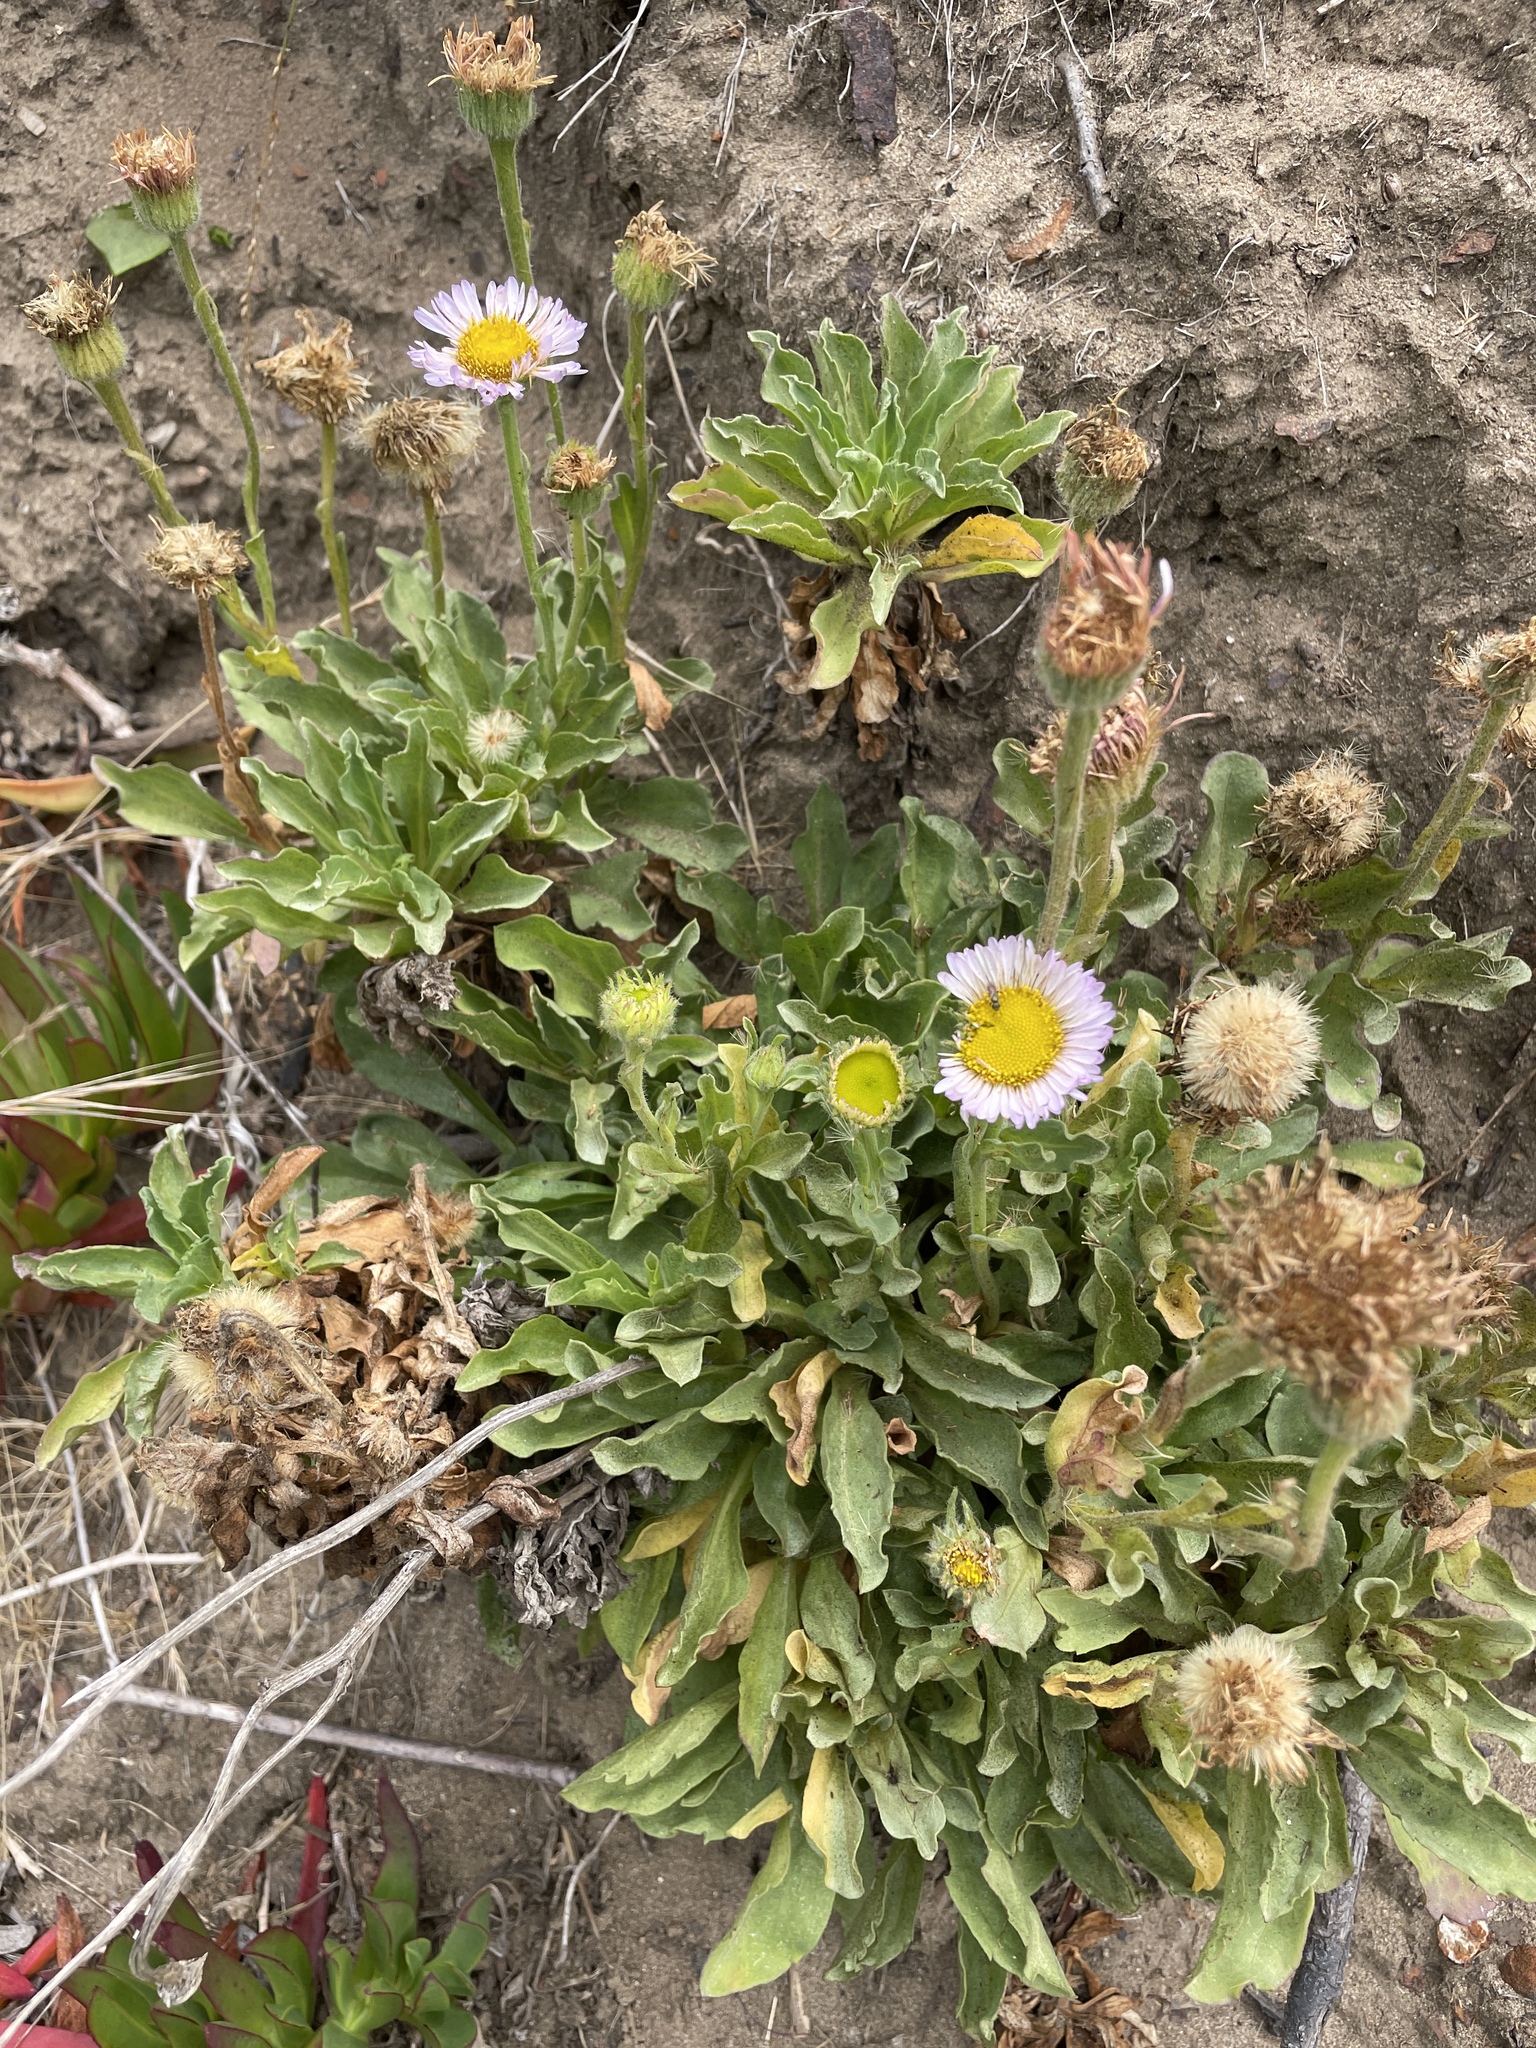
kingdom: Plantae
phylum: Tracheophyta
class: Magnoliopsida
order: Asterales
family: Asteraceae
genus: Erigeron
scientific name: Erigeron glaucus
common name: Seaside daisy
